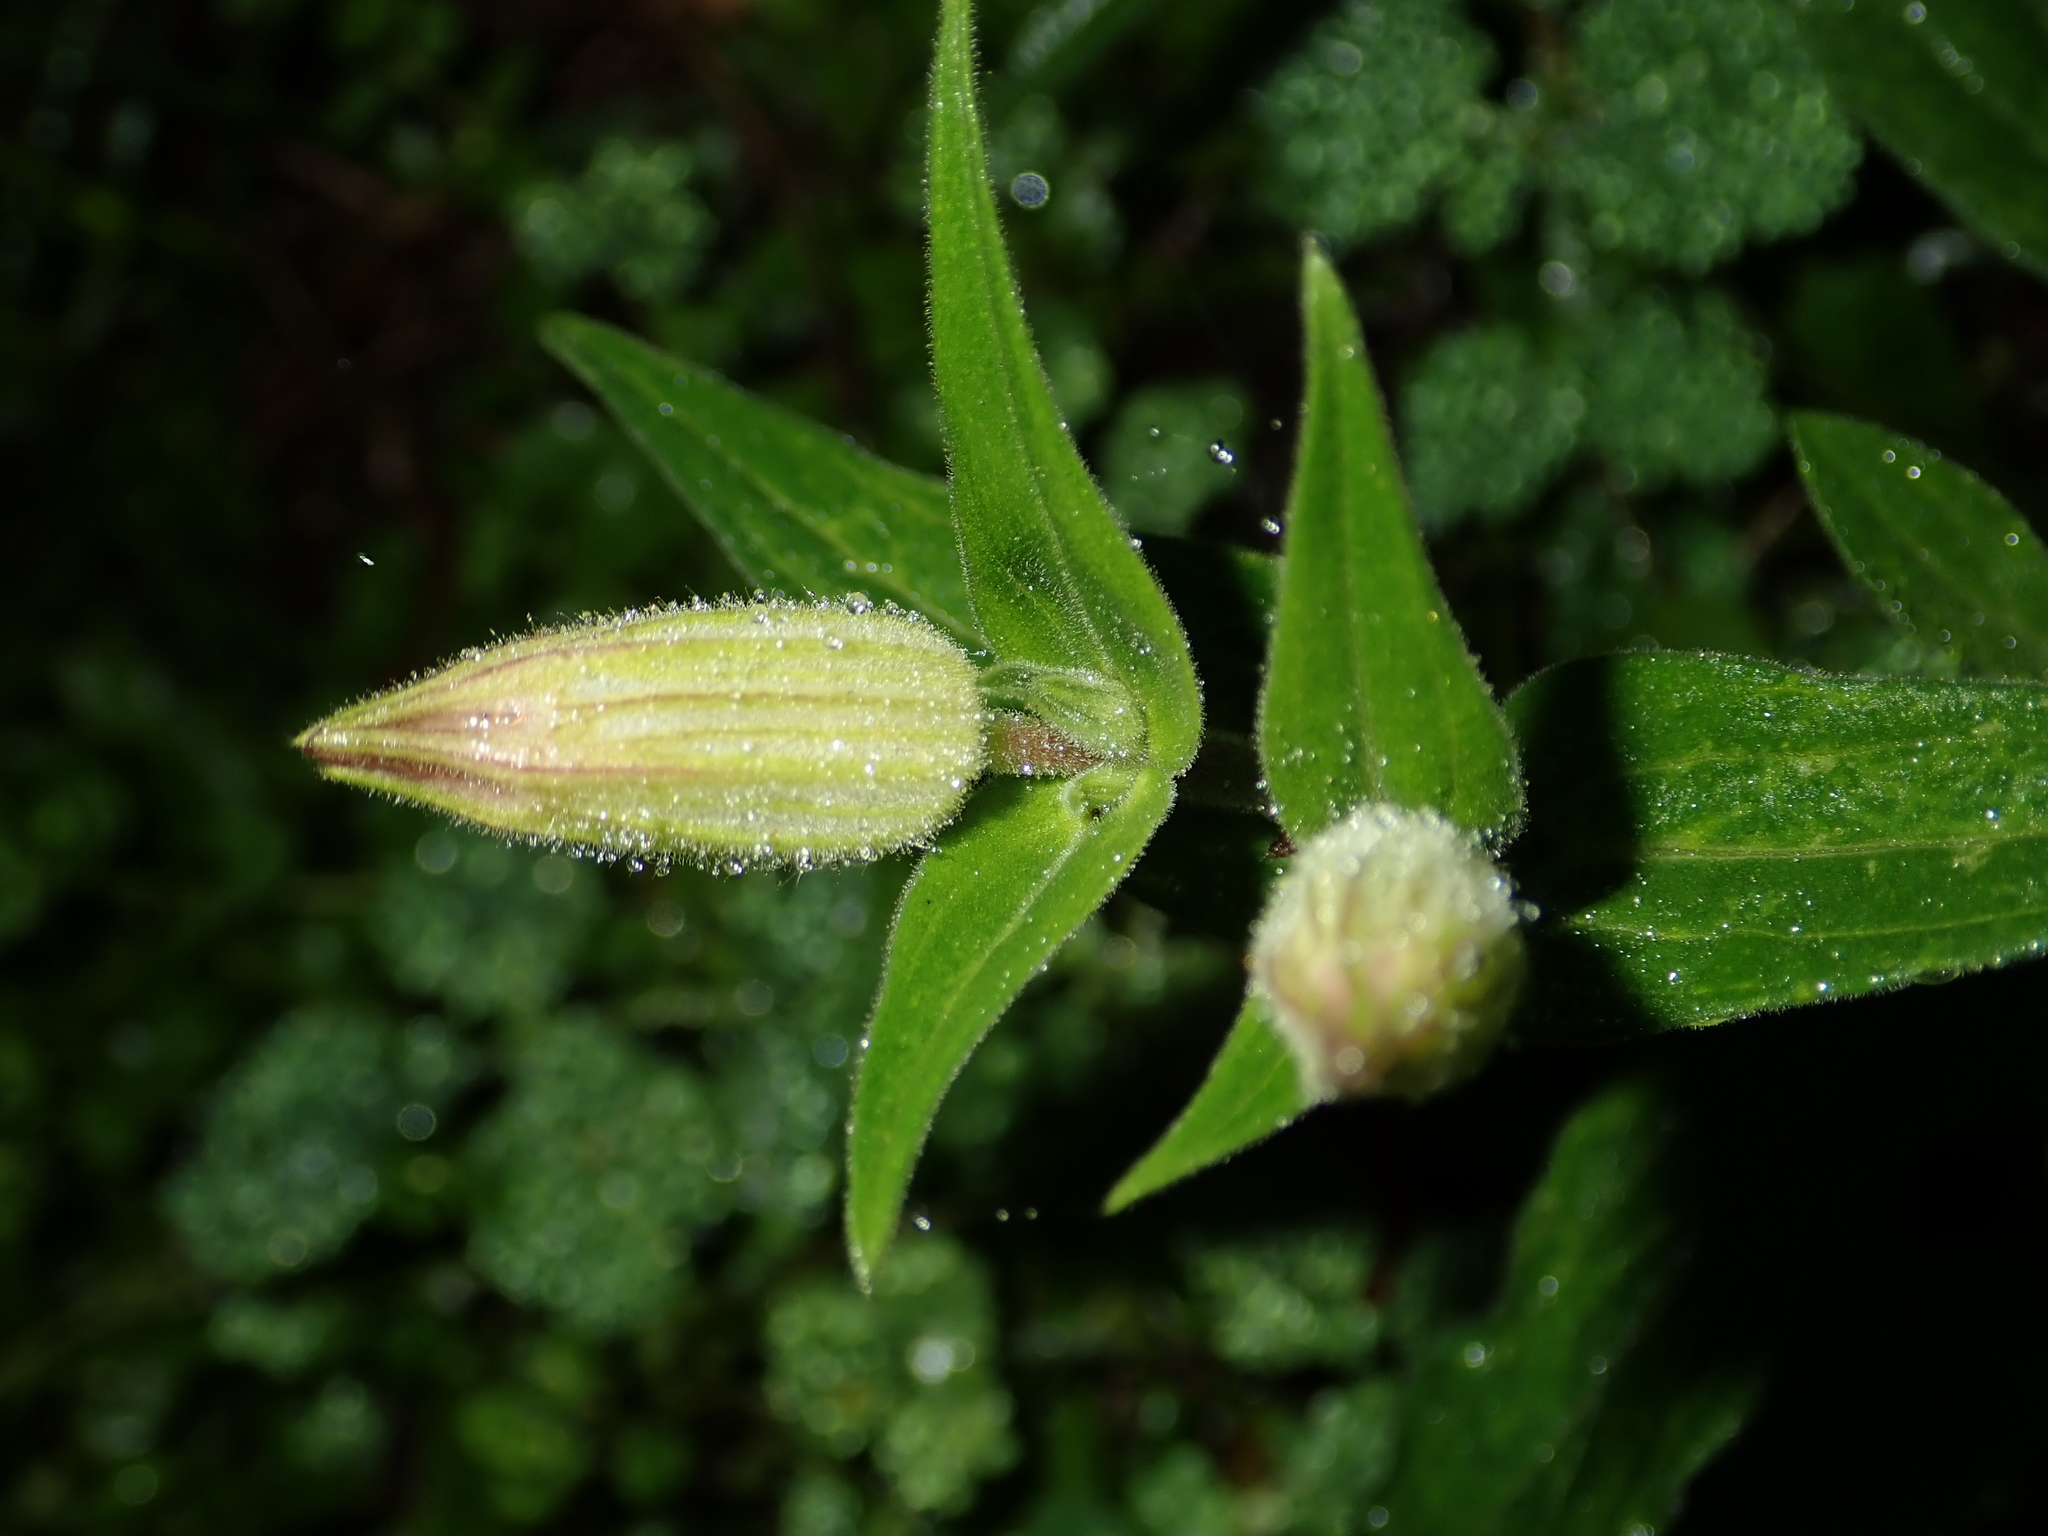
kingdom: Plantae
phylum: Tracheophyta
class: Magnoliopsida
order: Caryophyllales
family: Caryophyllaceae
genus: Silene
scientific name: Silene latifolia
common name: White campion
